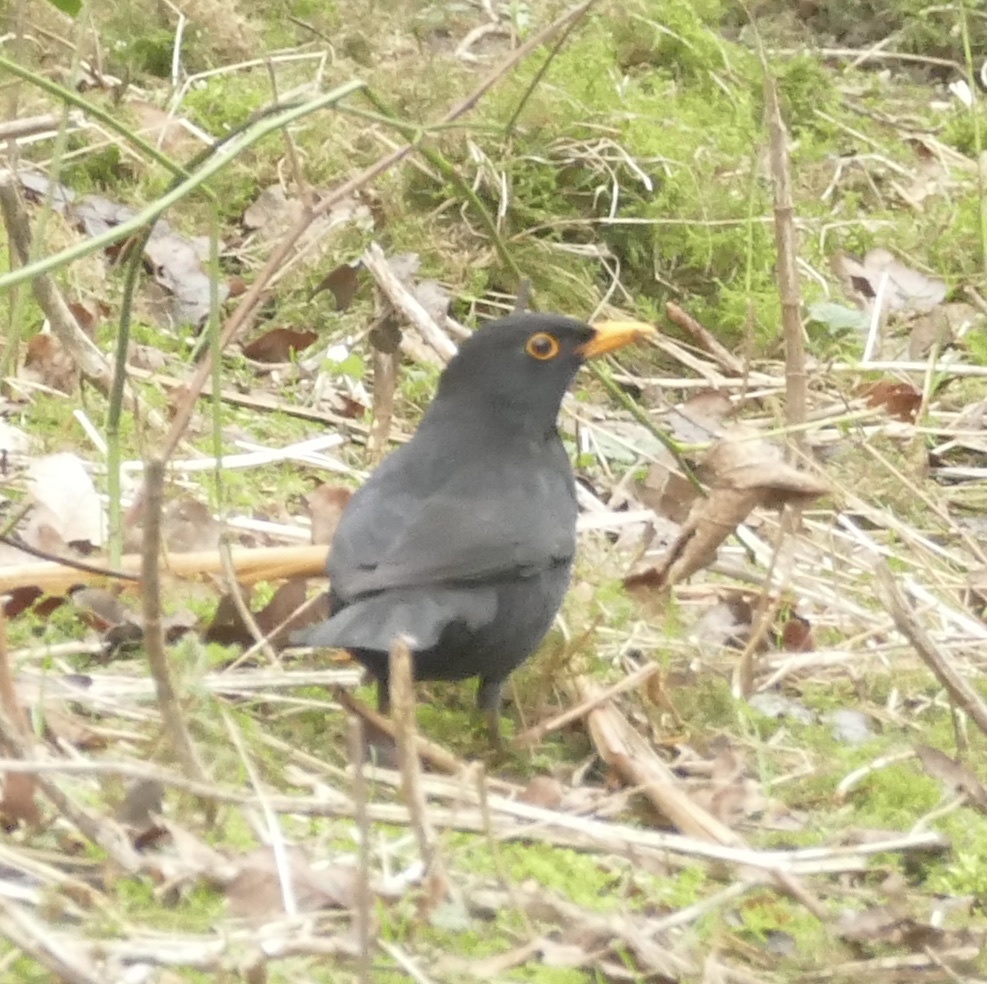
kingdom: Animalia
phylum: Chordata
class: Aves
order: Passeriformes
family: Turdidae
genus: Turdus
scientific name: Turdus merula
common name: Common blackbird
